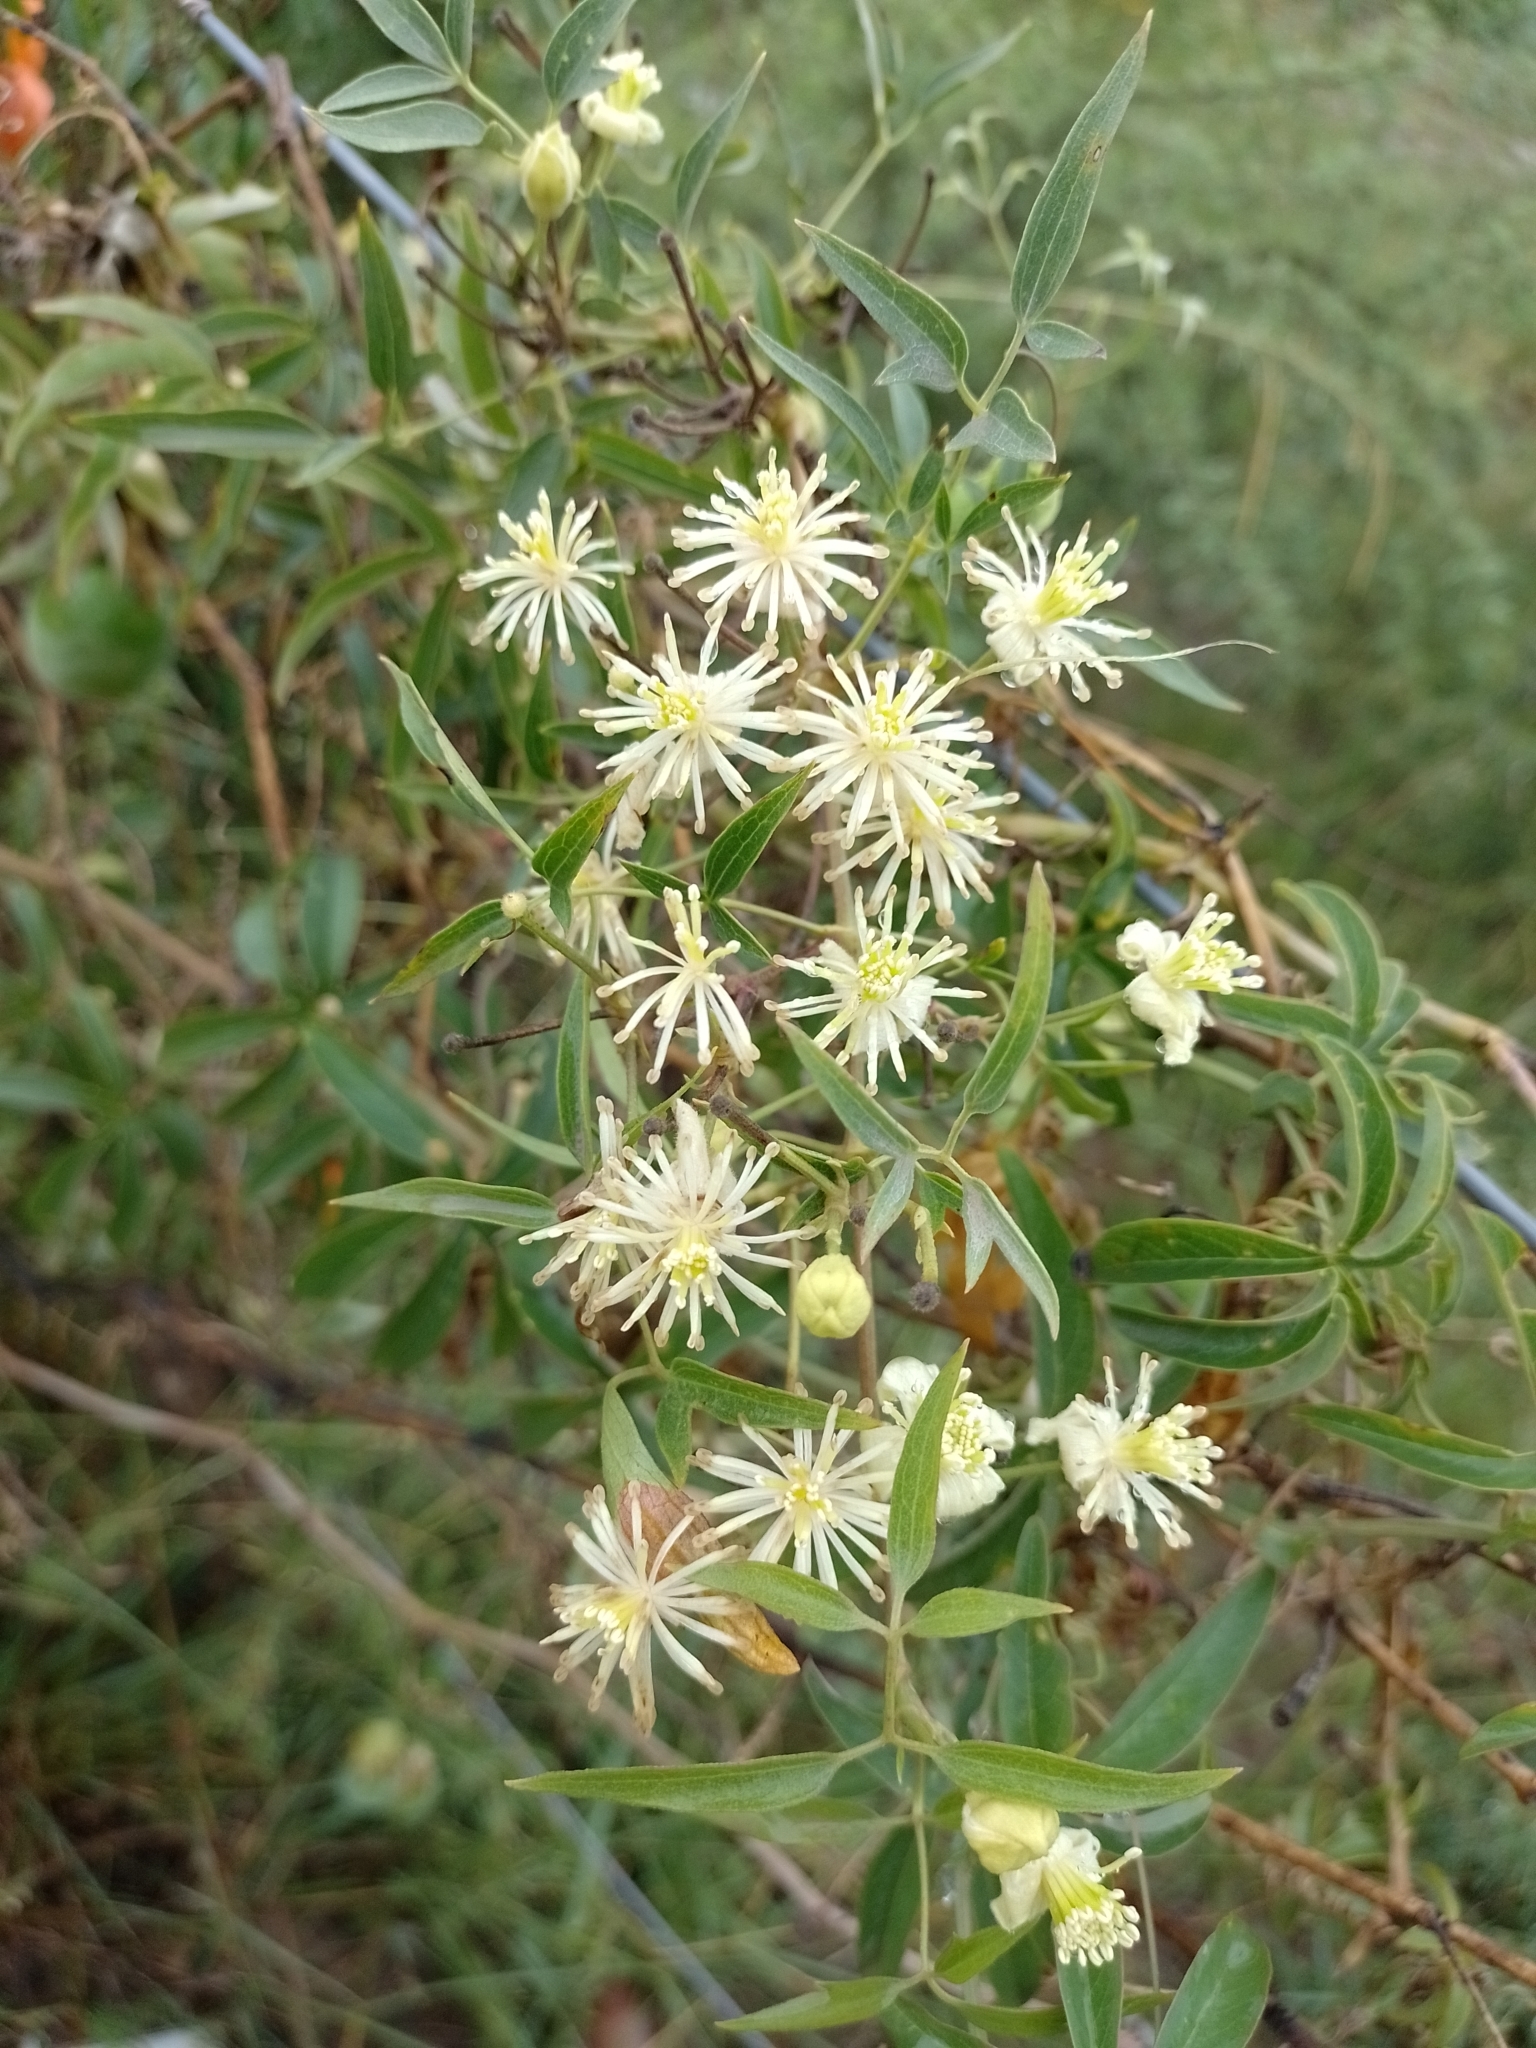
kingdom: Plantae
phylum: Tracheophyta
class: Magnoliopsida
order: Ranunculales
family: Ranunculaceae
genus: Clematis
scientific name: Clematis montevidensis
